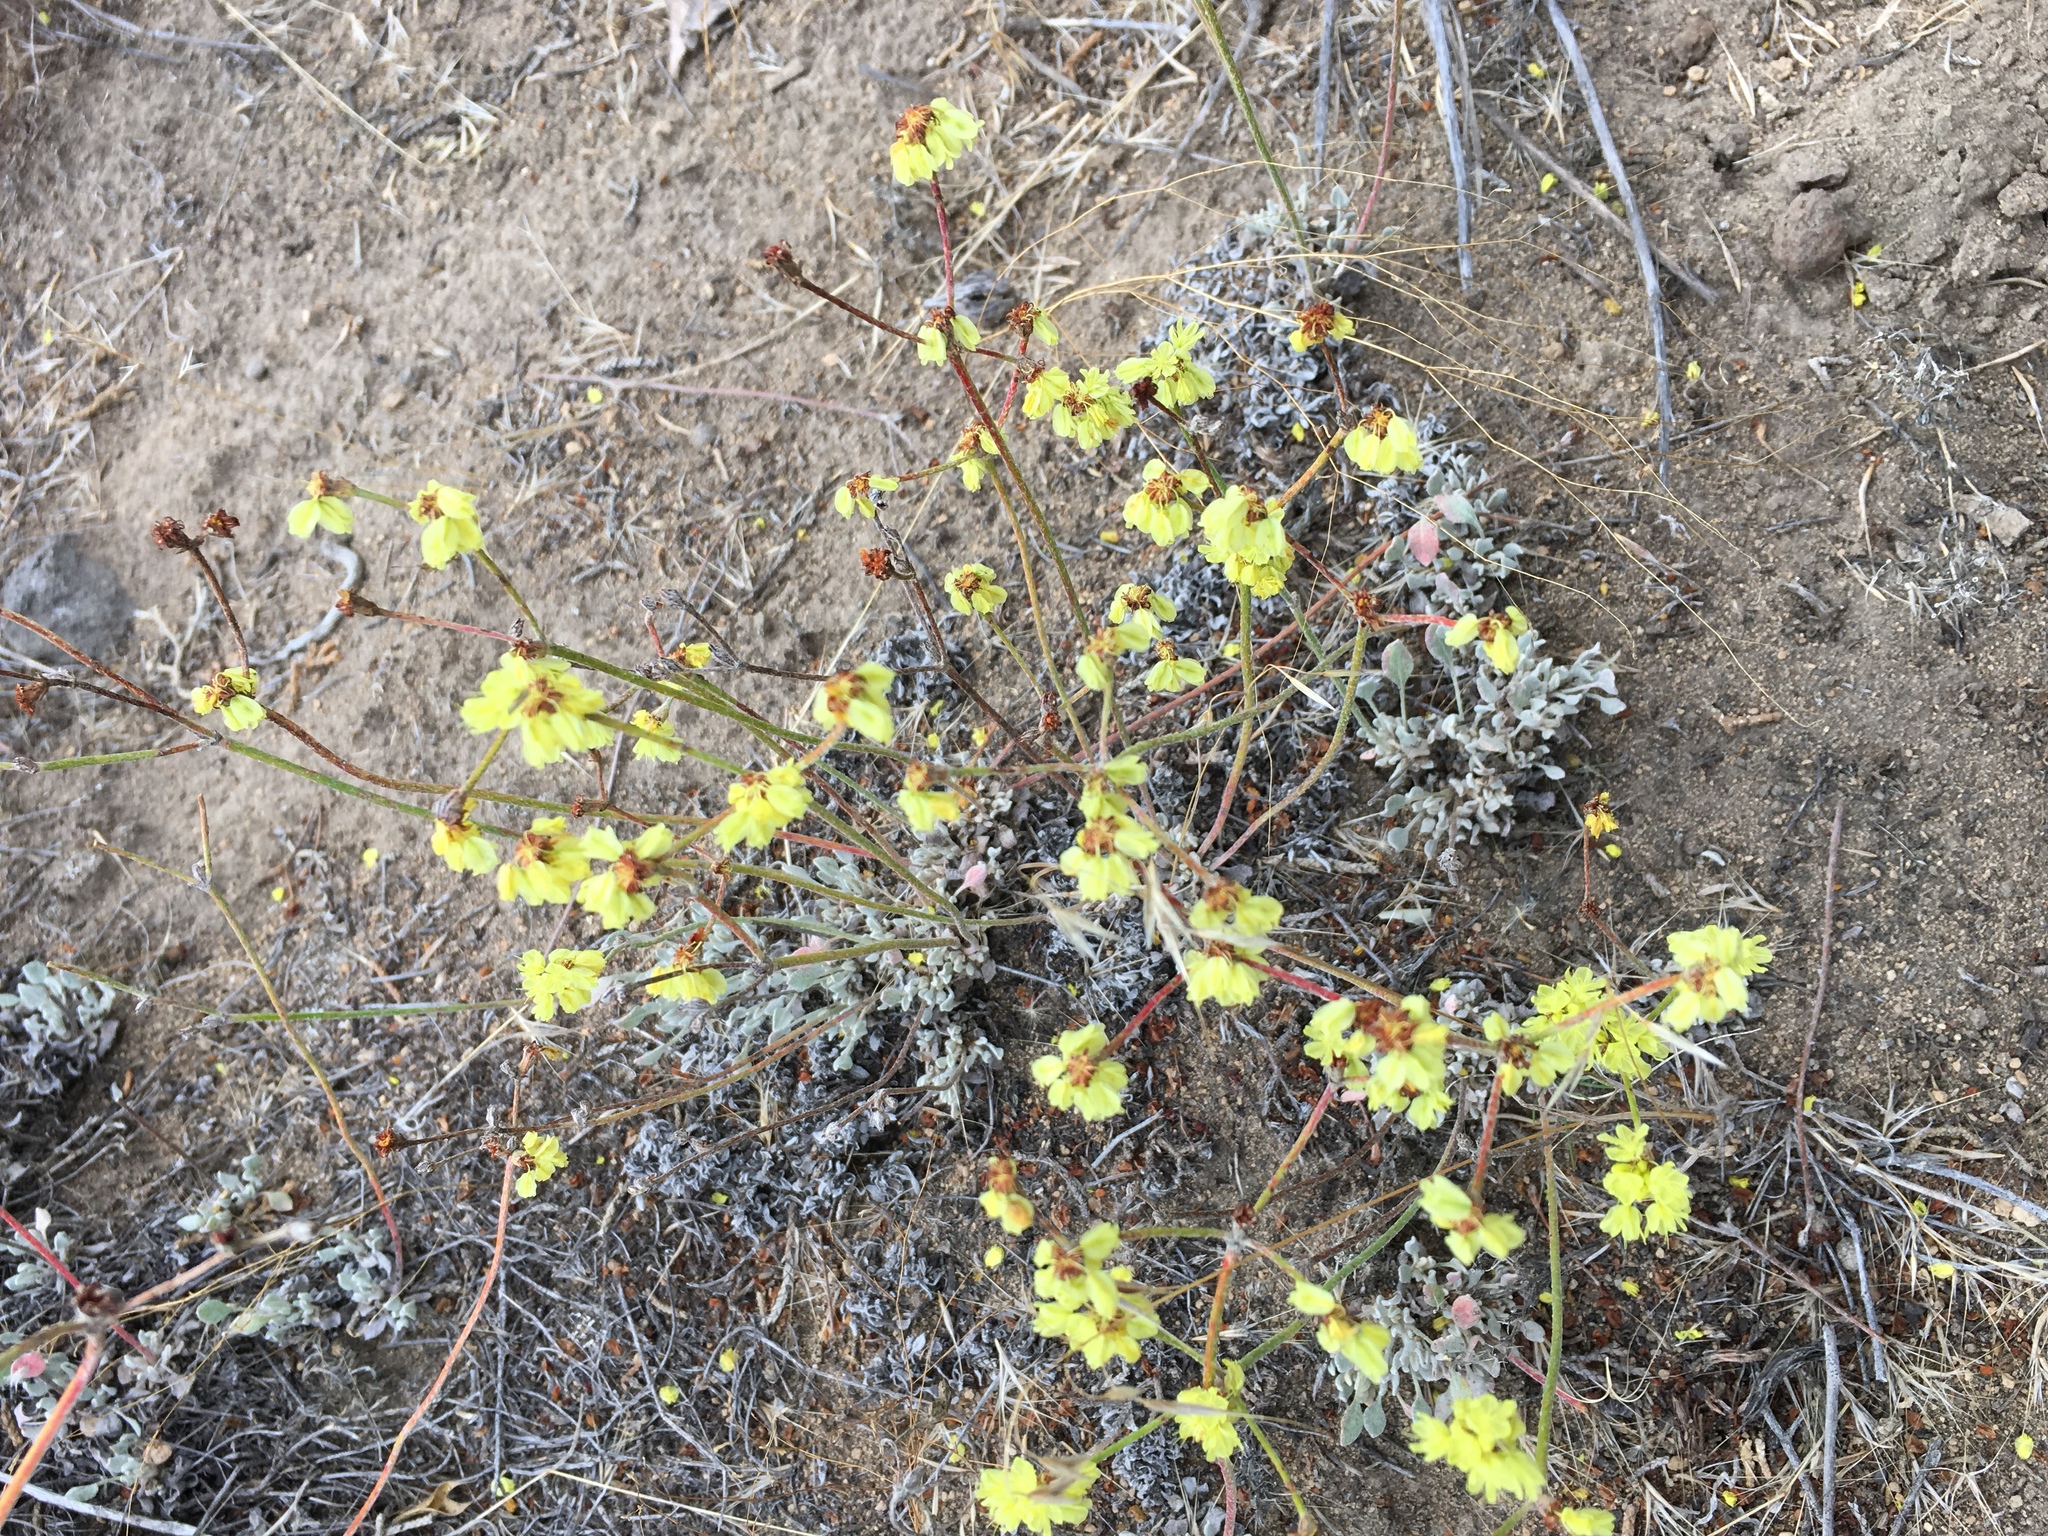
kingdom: Plantae
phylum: Tracheophyta
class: Magnoliopsida
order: Caryophyllales
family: Polygonaceae
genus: Eriogonum
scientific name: Eriogonum umbellatum
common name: Sulfur-buckwheat
